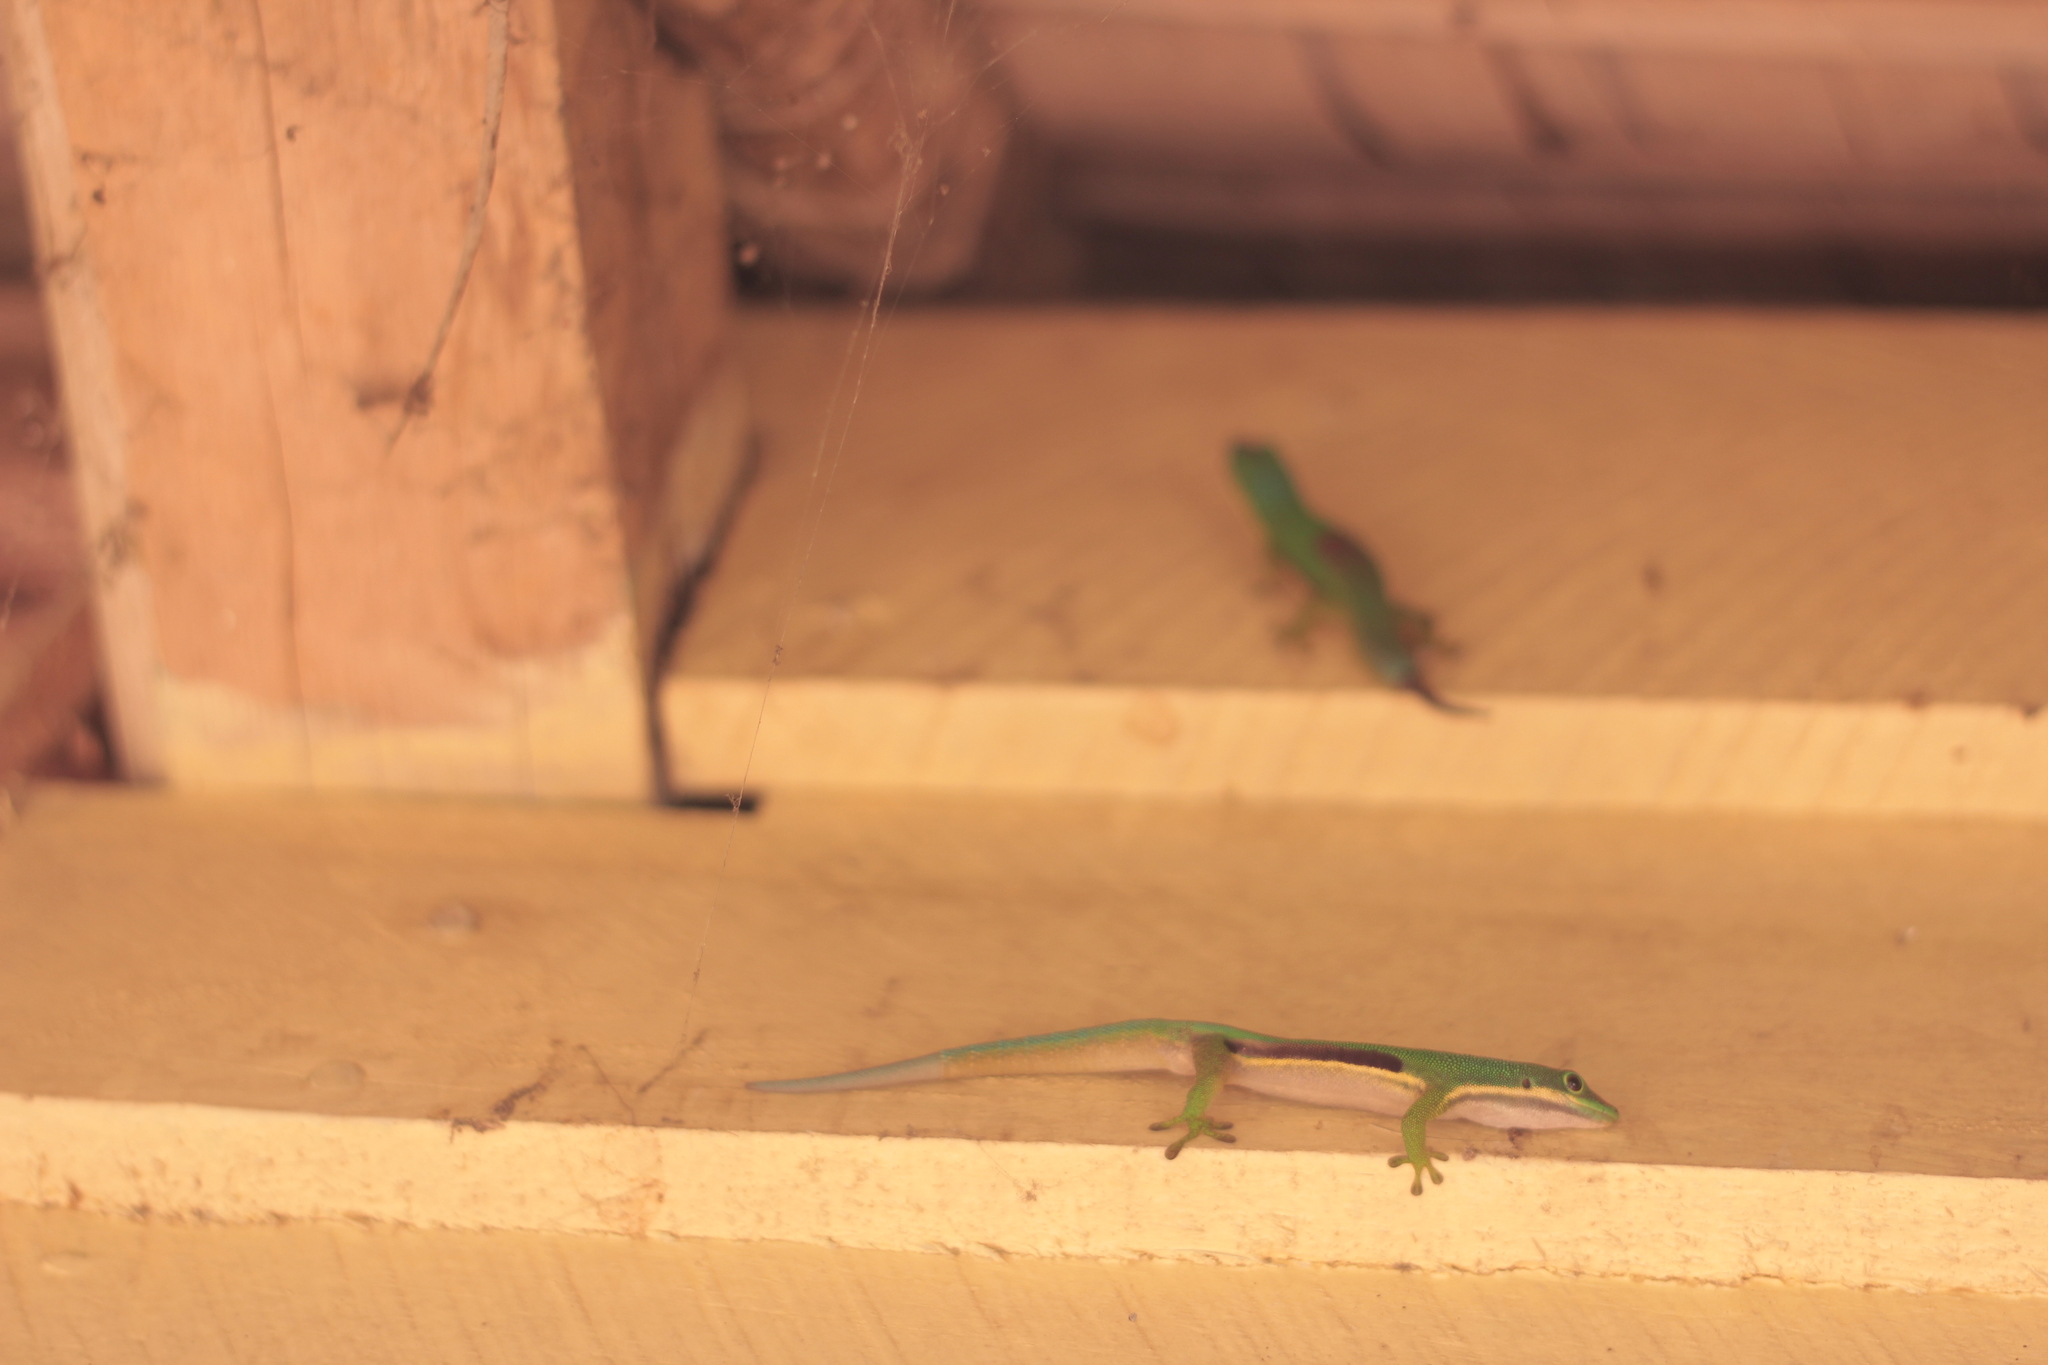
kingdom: Animalia
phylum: Chordata
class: Squamata
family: Gekkonidae
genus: Phelsuma
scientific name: Phelsuma lineata
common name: Lined day gecko
